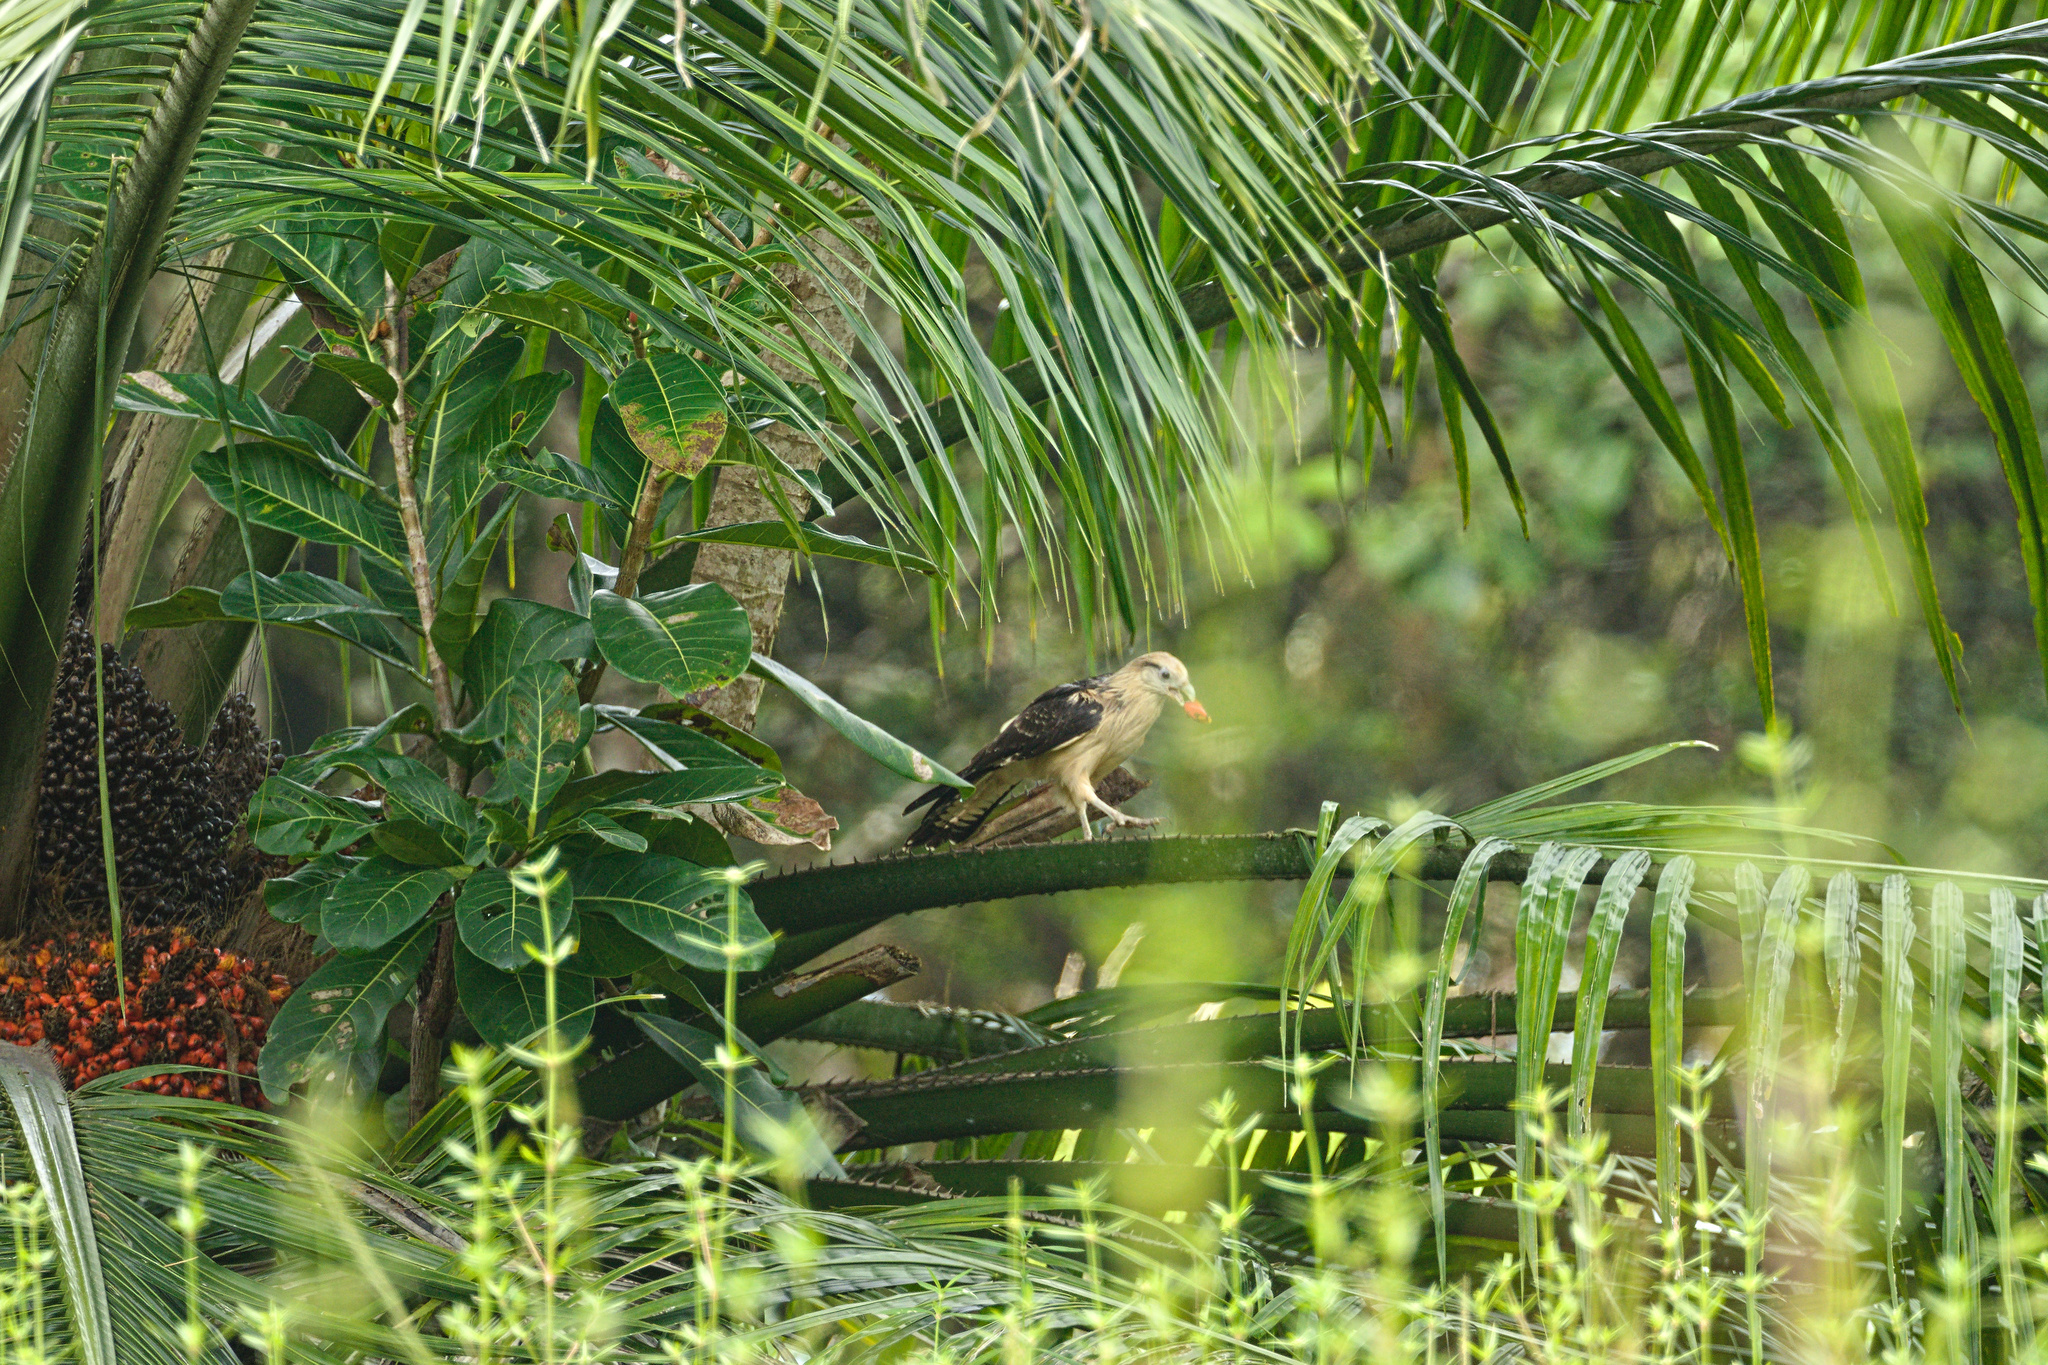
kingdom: Animalia
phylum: Chordata
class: Aves
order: Falconiformes
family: Falconidae
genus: Daptrius
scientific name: Daptrius
